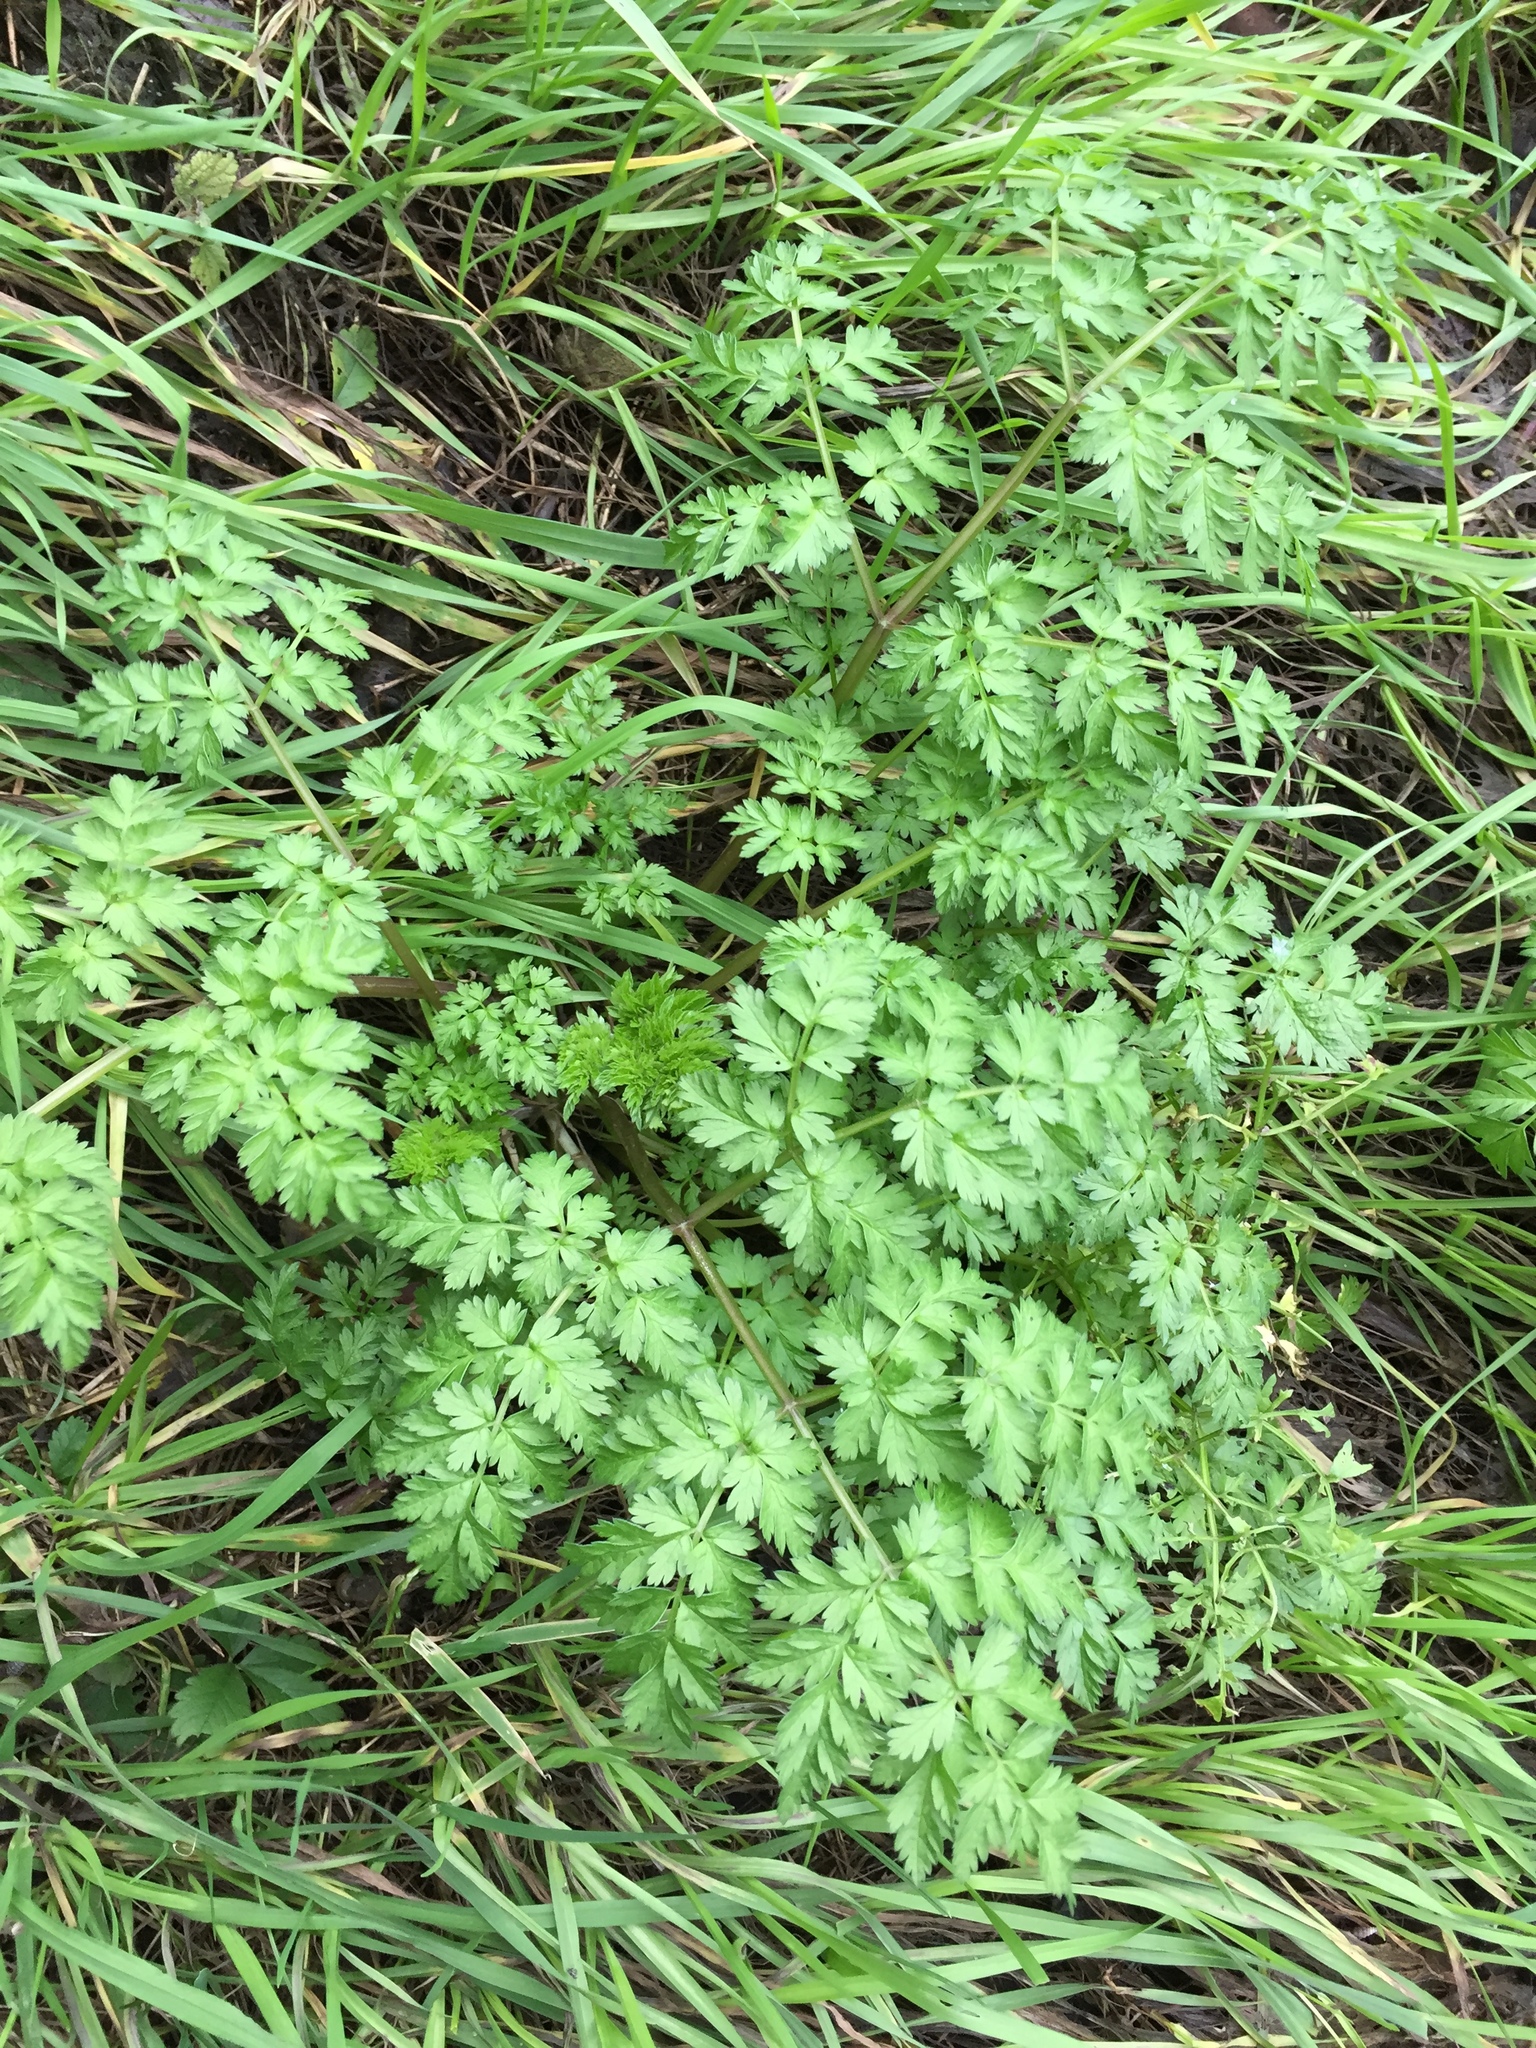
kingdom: Plantae
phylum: Tracheophyta
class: Magnoliopsida
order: Apiales
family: Apiaceae
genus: Anthriscus
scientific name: Anthriscus sylvestris
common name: Cow parsley
